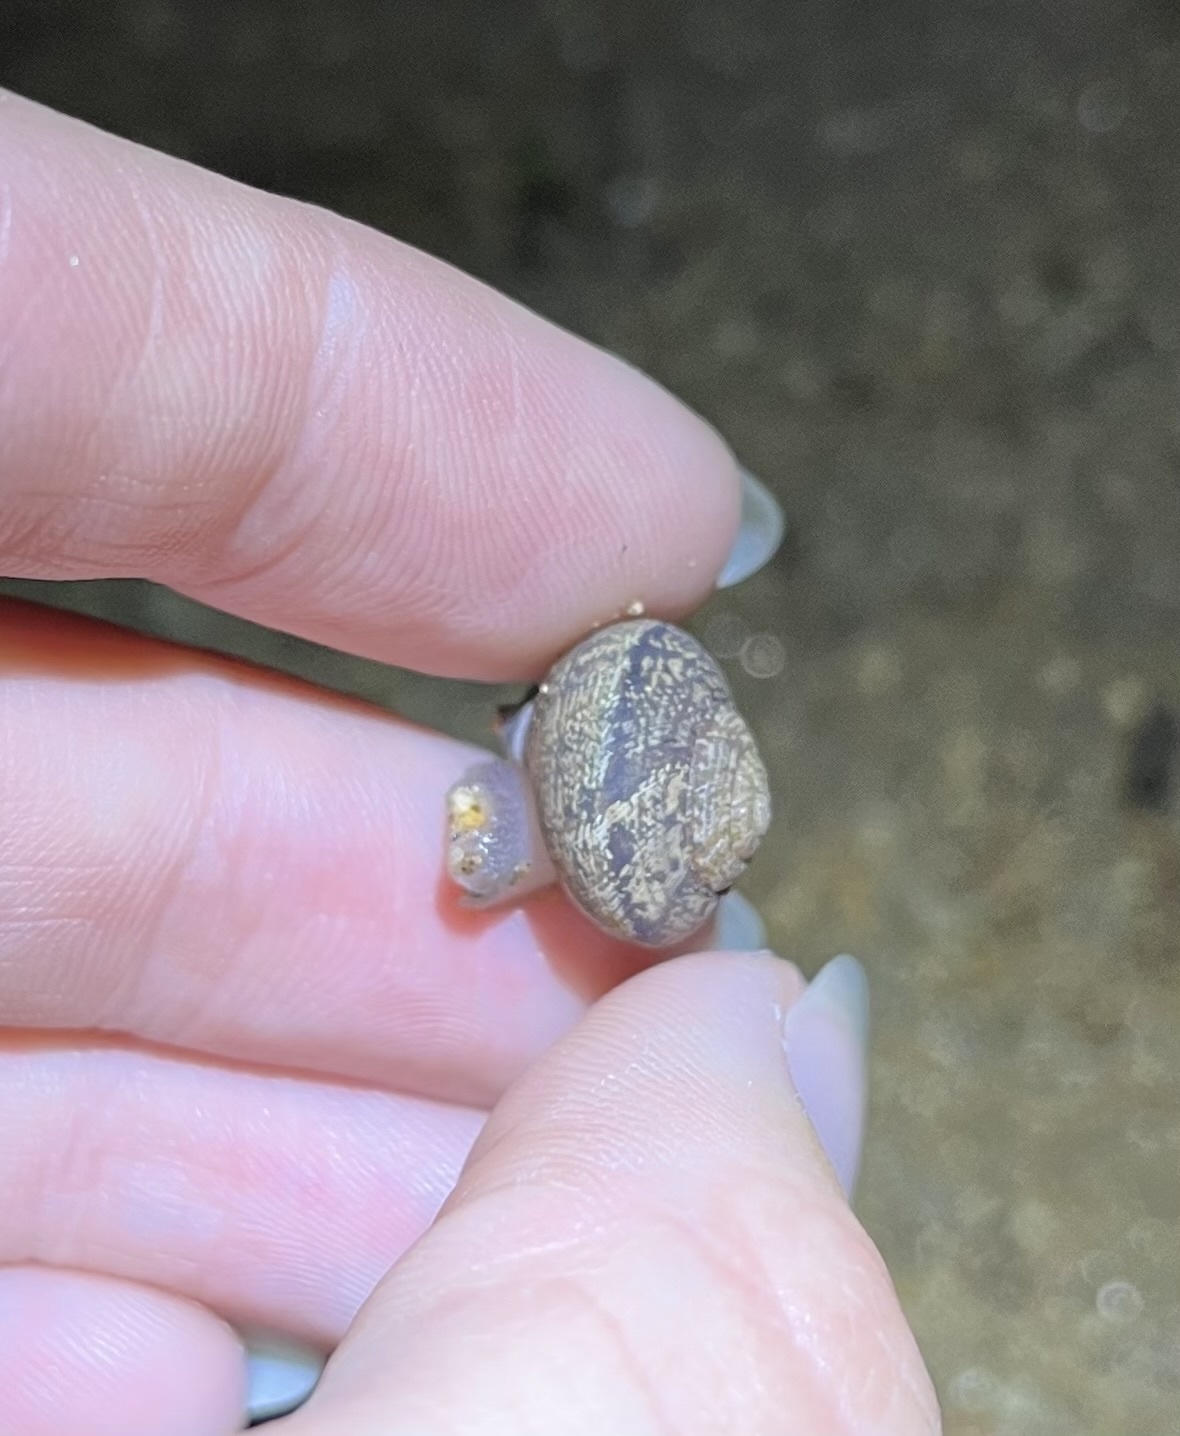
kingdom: Animalia
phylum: Mollusca
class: Gastropoda
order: Stylommatophora
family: Xanthonychidae
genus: Xerarionta
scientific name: Xerarionta stearnsiana
